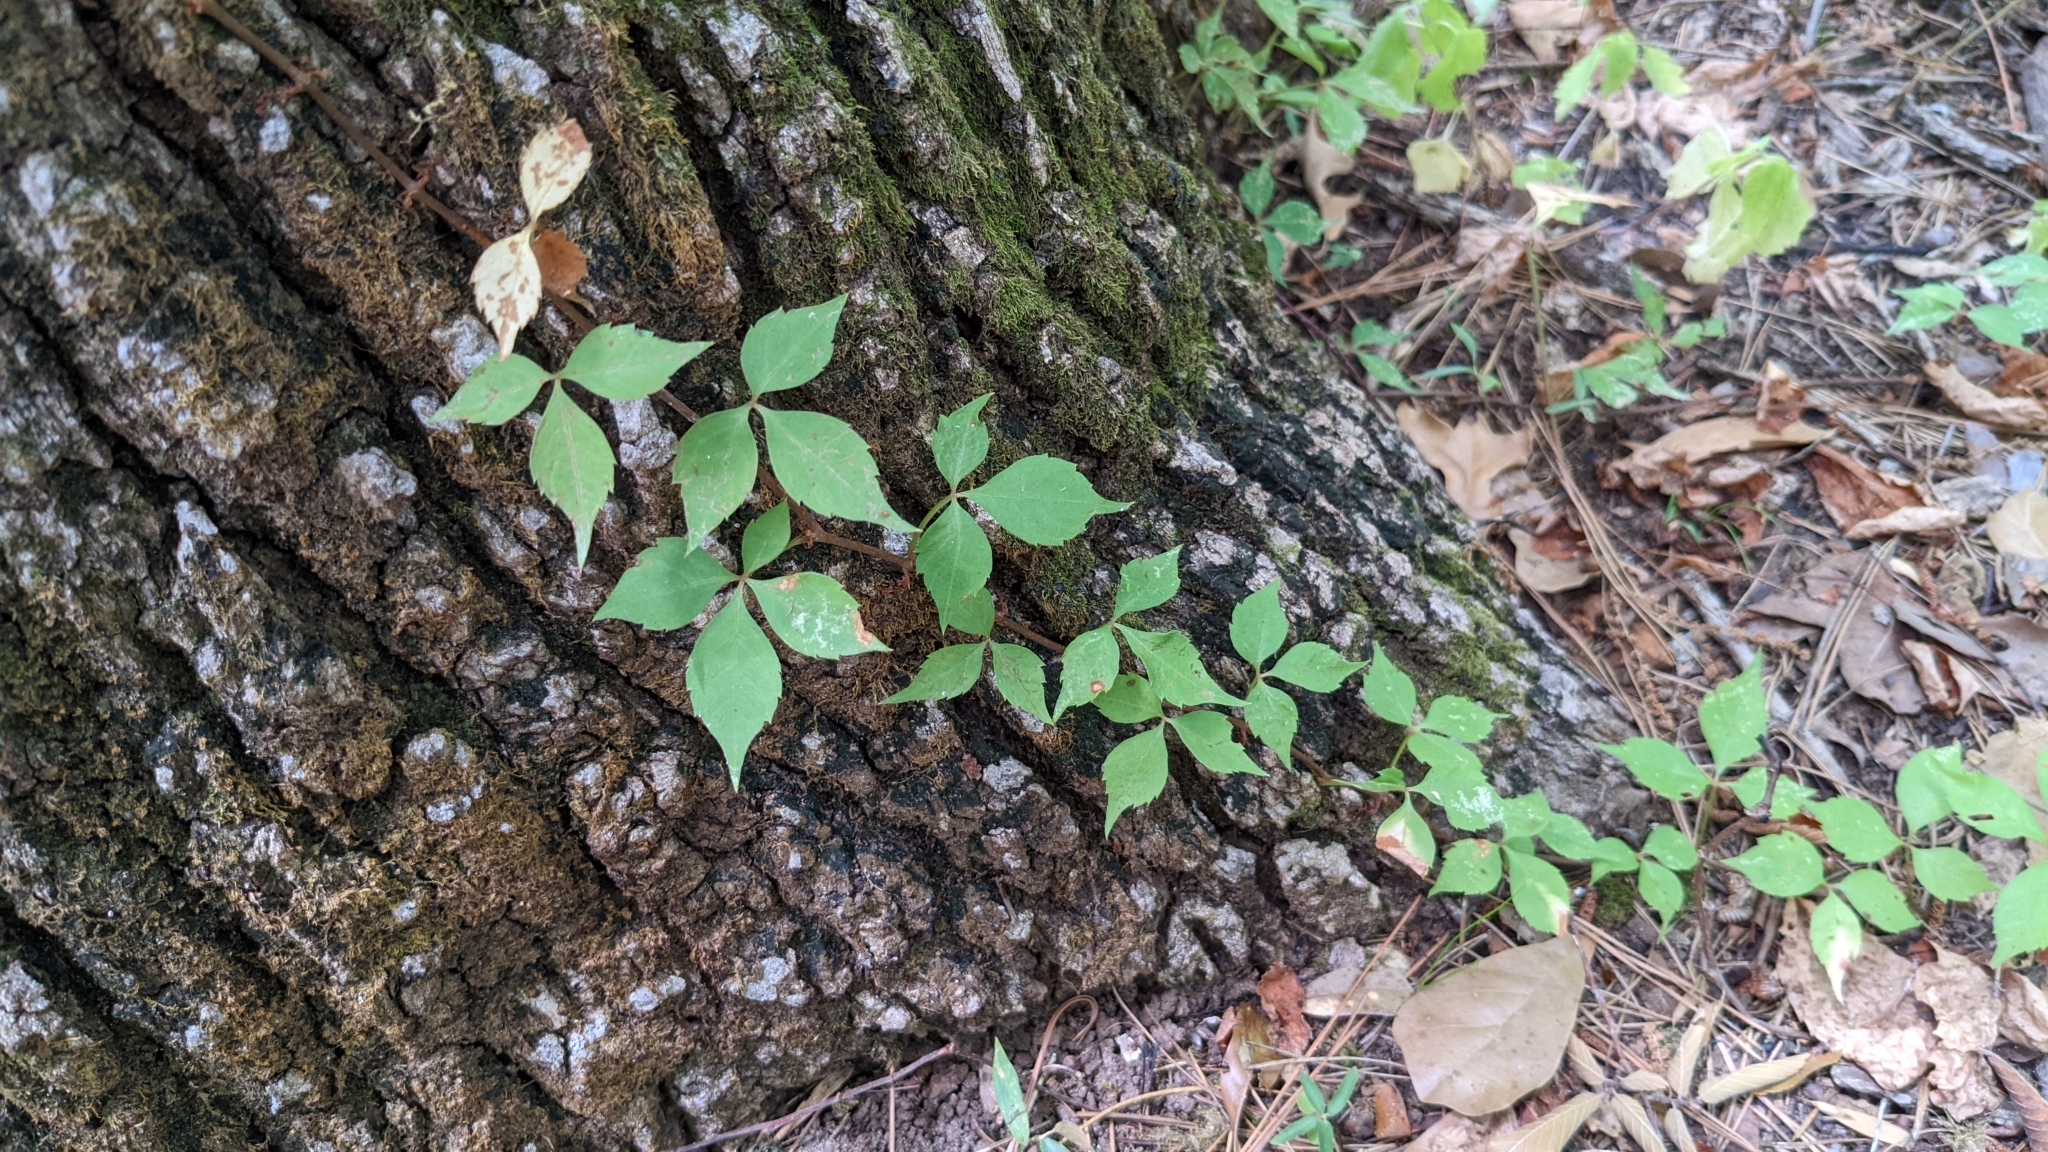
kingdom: Plantae
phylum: Tracheophyta
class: Magnoliopsida
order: Vitales
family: Vitaceae
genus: Parthenocissus
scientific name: Parthenocissus quinquefolia
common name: Virginia-creeper
